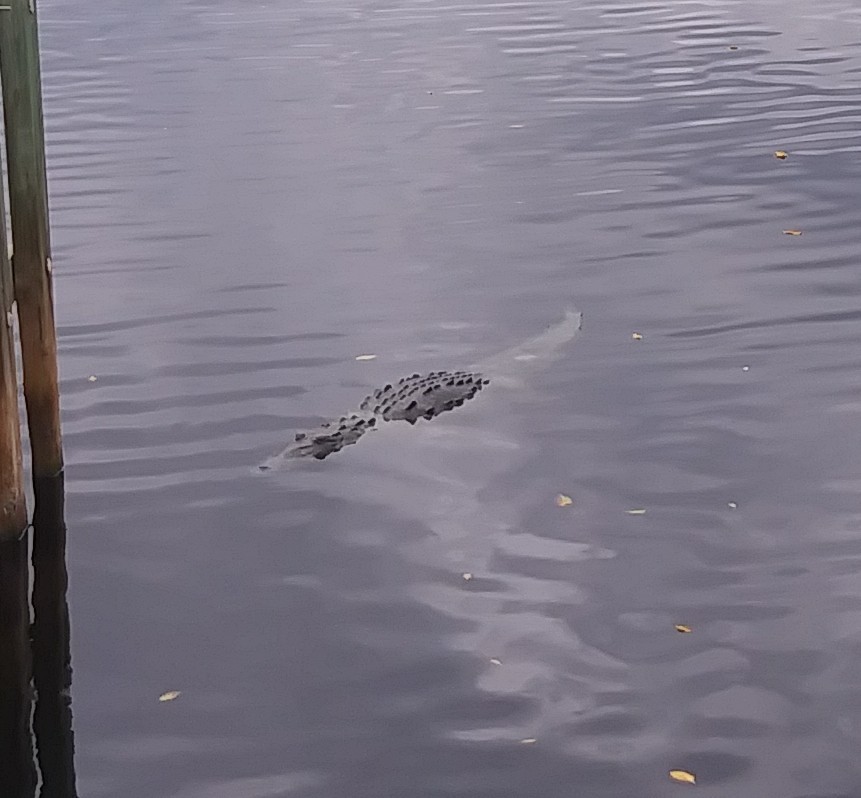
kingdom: Animalia
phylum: Chordata
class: Crocodylia
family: Crocodylidae
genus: Crocodylus
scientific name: Crocodylus acutus
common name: American crocodile
